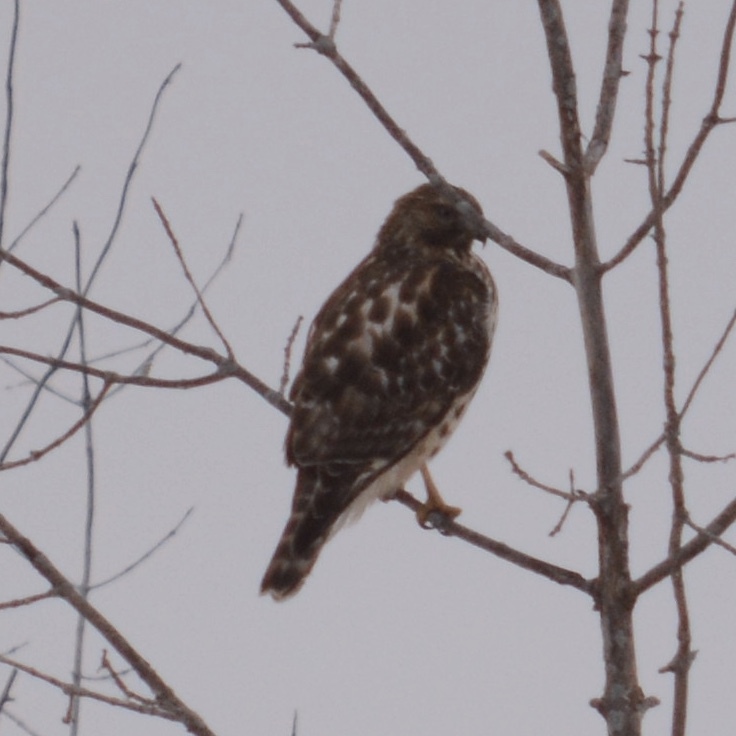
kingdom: Animalia
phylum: Chordata
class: Aves
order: Accipitriformes
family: Accipitridae
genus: Buteo
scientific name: Buteo lineatus
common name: Red-shouldered hawk
